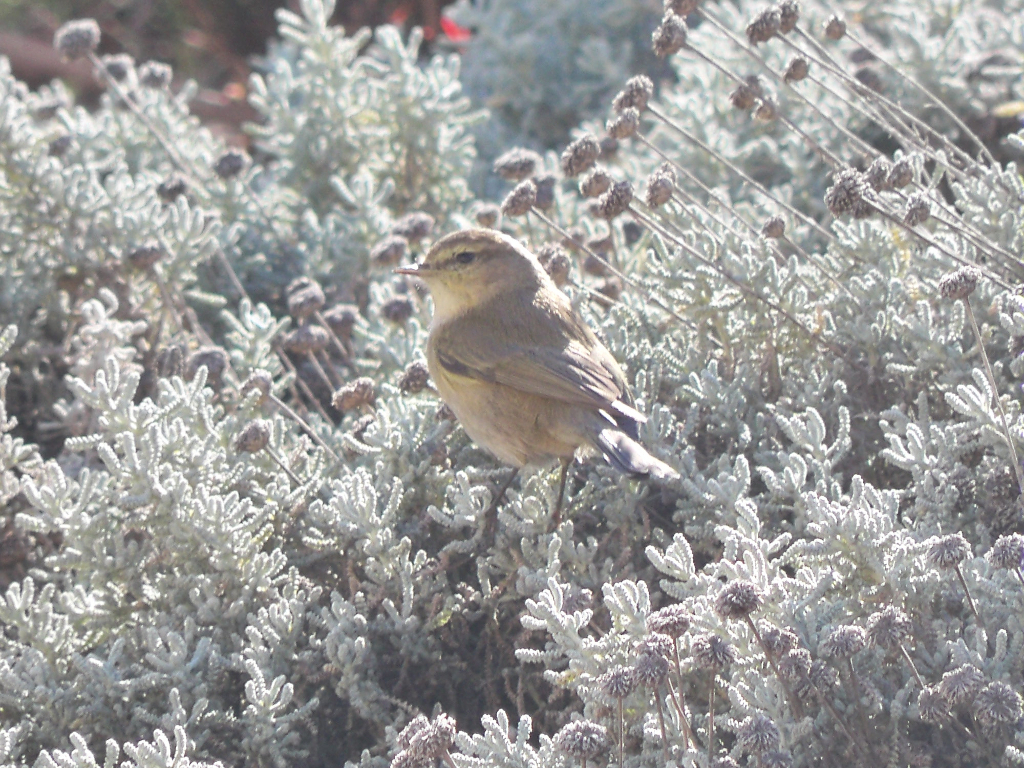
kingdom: Animalia
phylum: Chordata
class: Aves
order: Passeriformes
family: Phylloscopidae
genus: Phylloscopus
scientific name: Phylloscopus collybita
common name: Common chiffchaff
